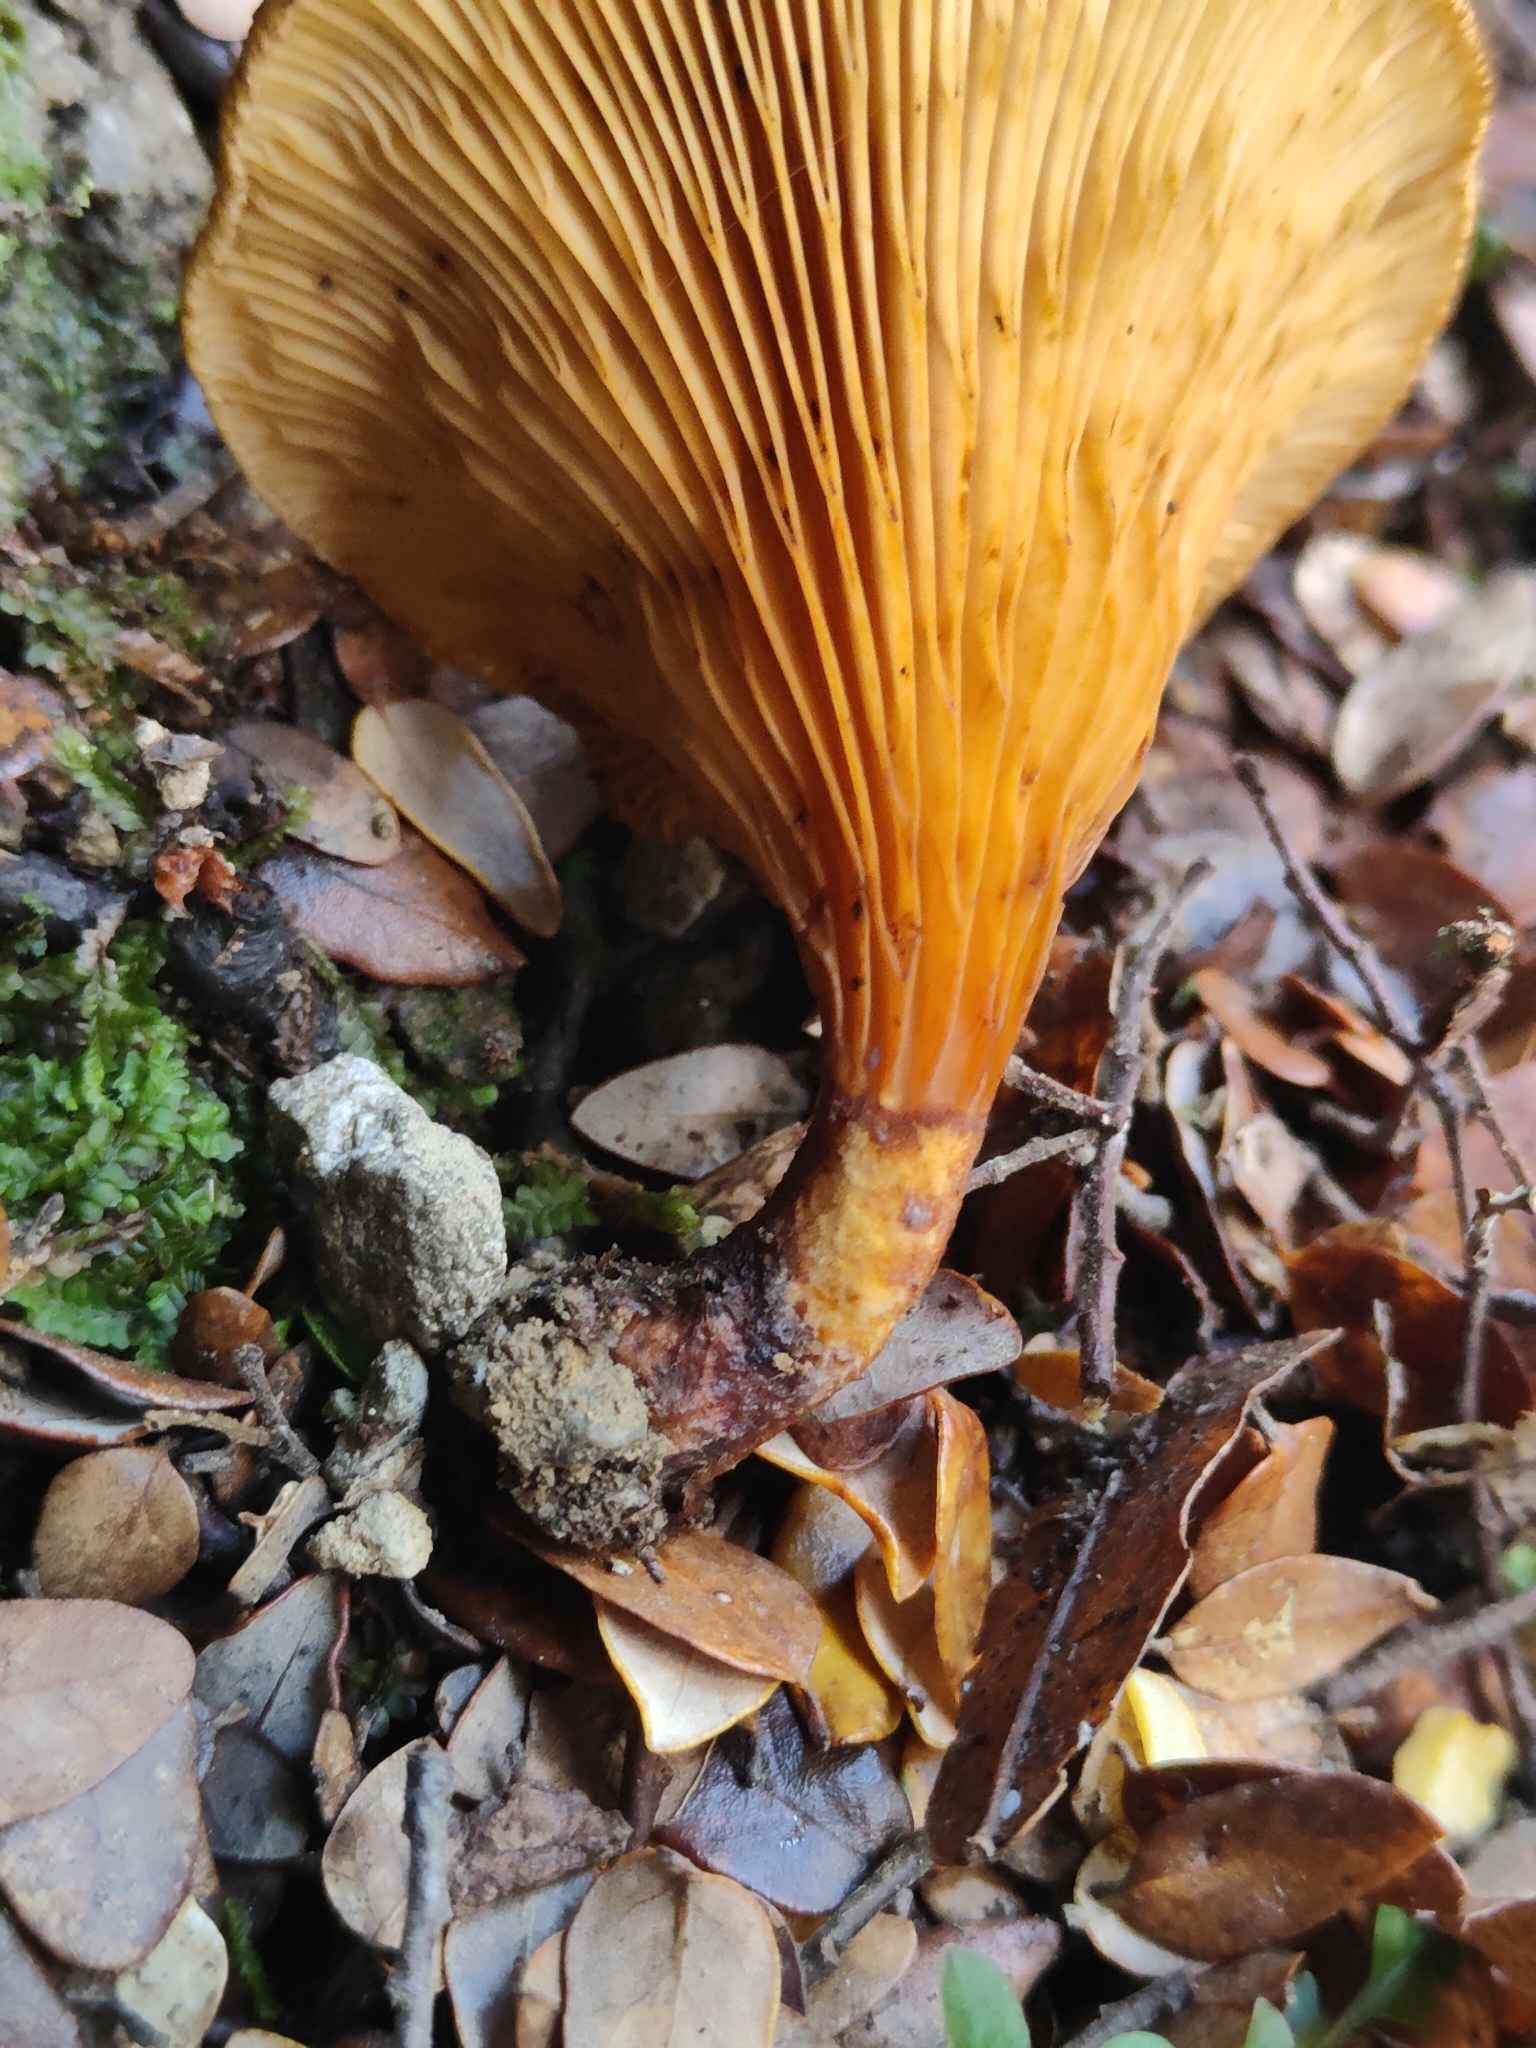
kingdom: Fungi
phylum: Basidiomycota
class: Agaricomycetes
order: Boletales
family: Serpulaceae
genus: Austropaxillus
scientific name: Austropaxillus nothofagi
